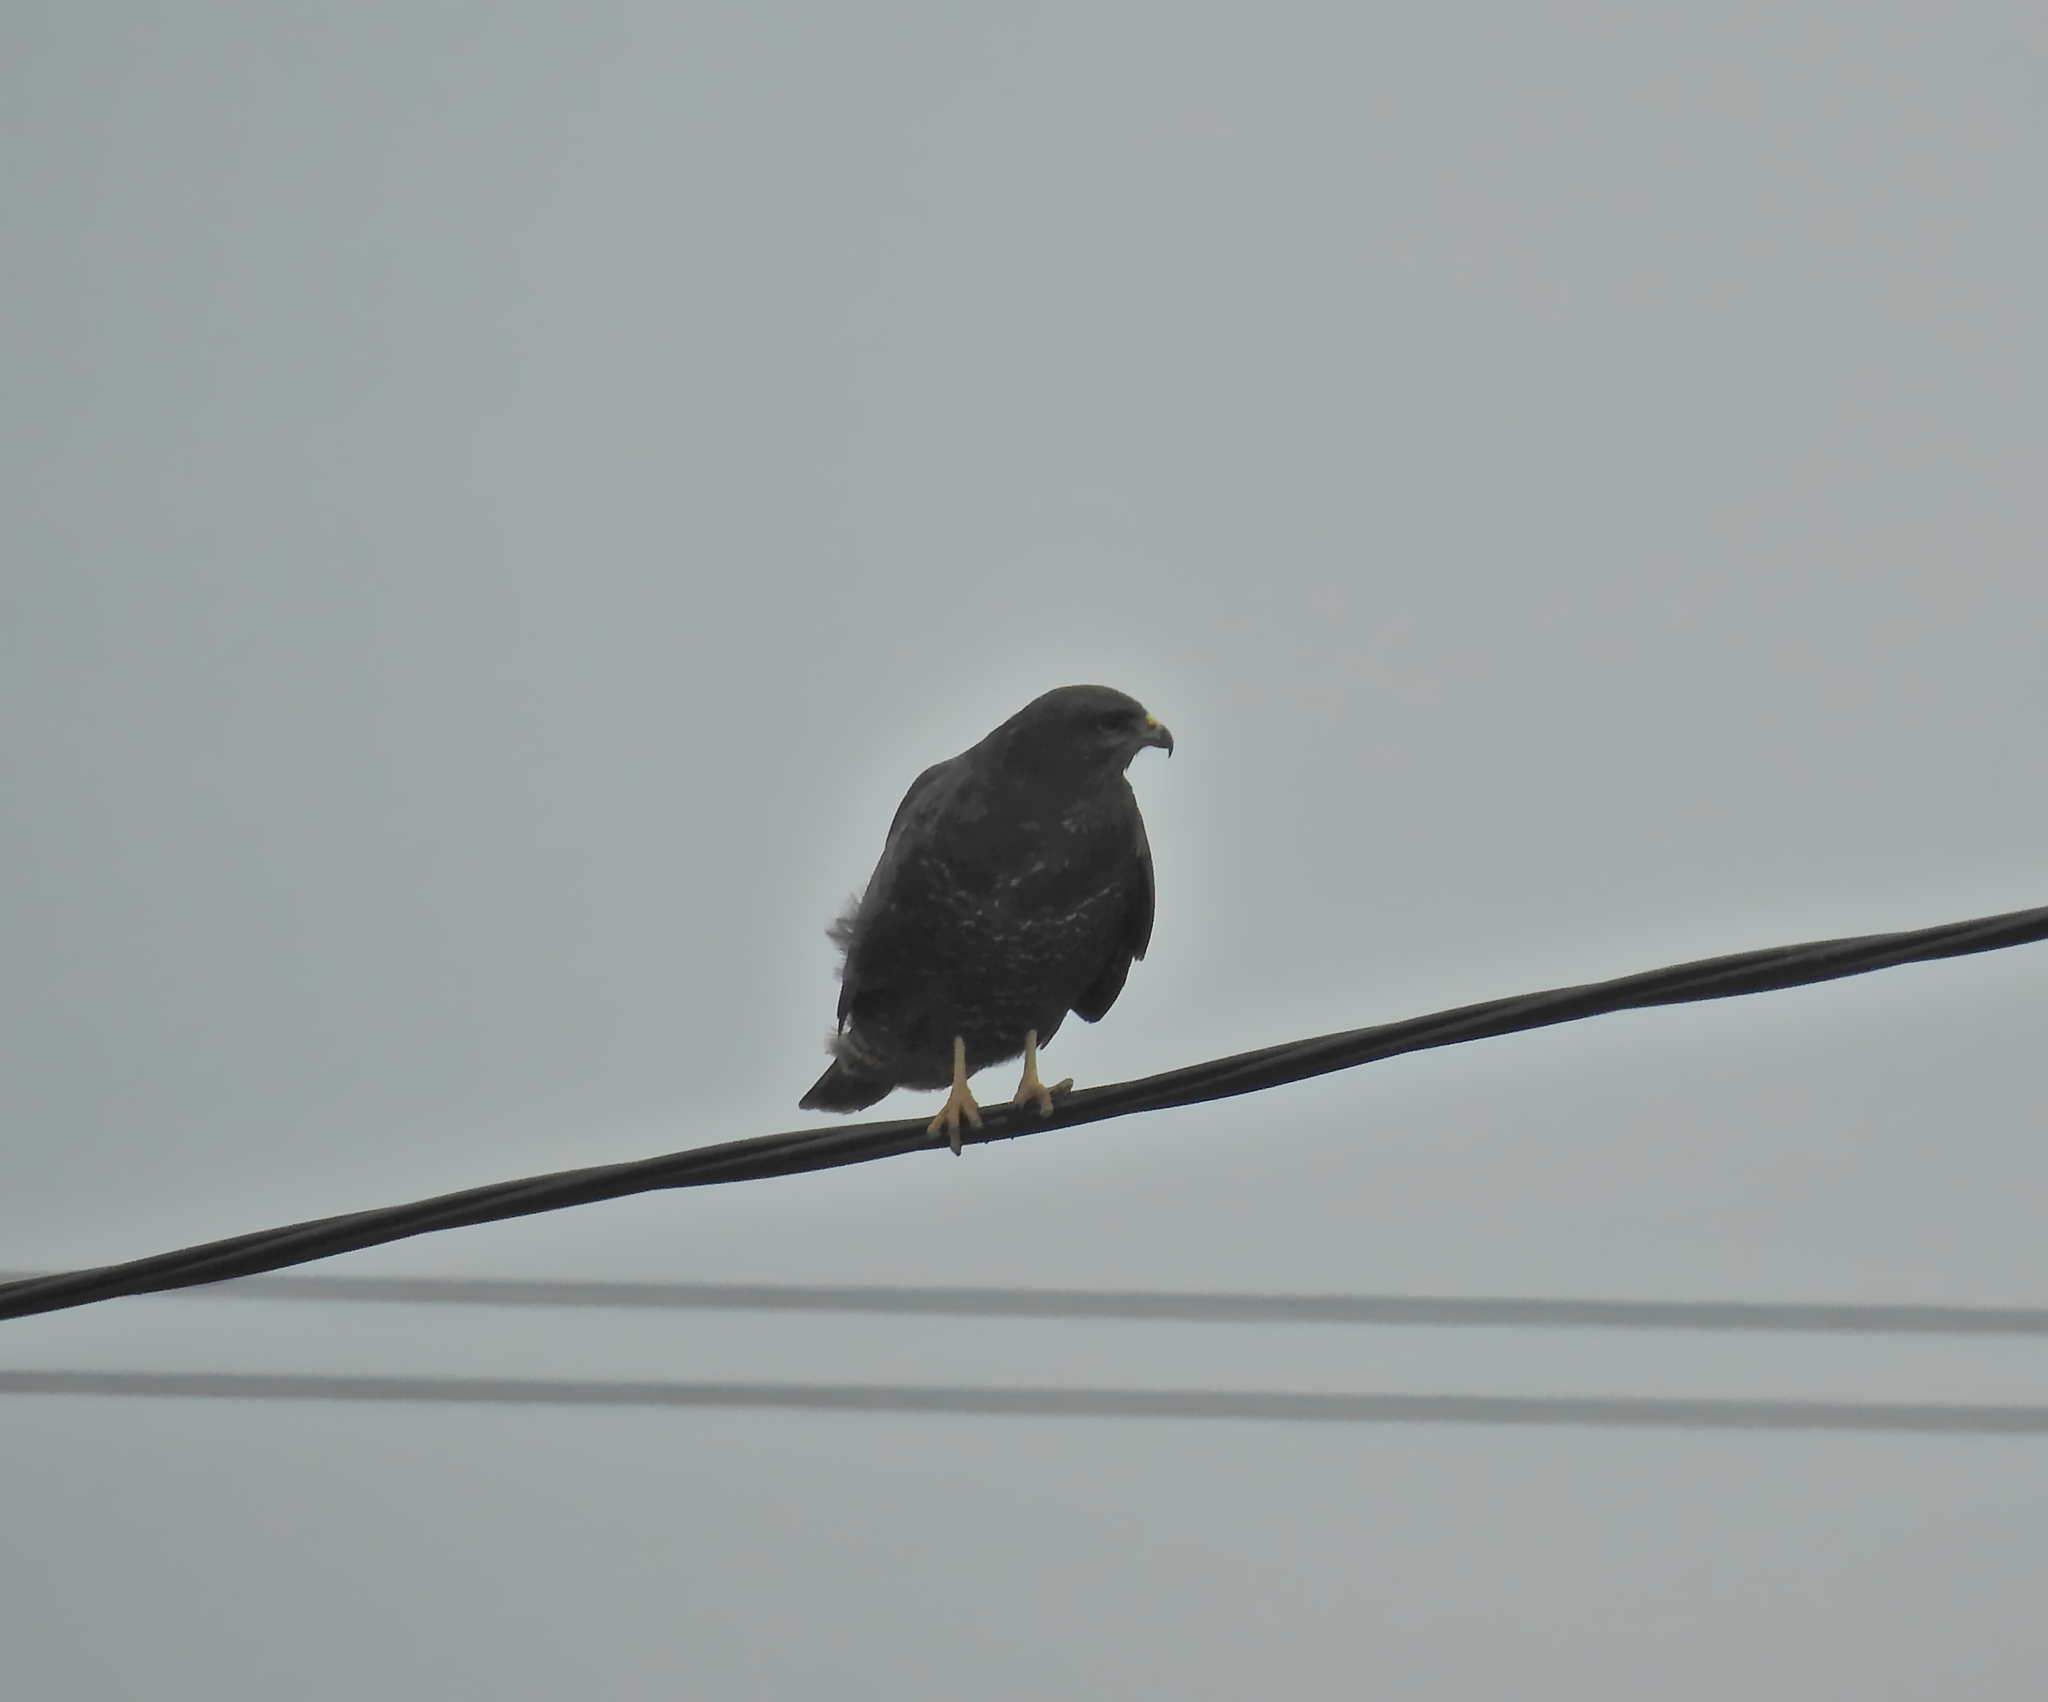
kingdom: Animalia
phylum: Chordata
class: Aves
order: Accipitriformes
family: Accipitridae
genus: Buteo
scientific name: Buteo buteo
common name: Common buzzard
